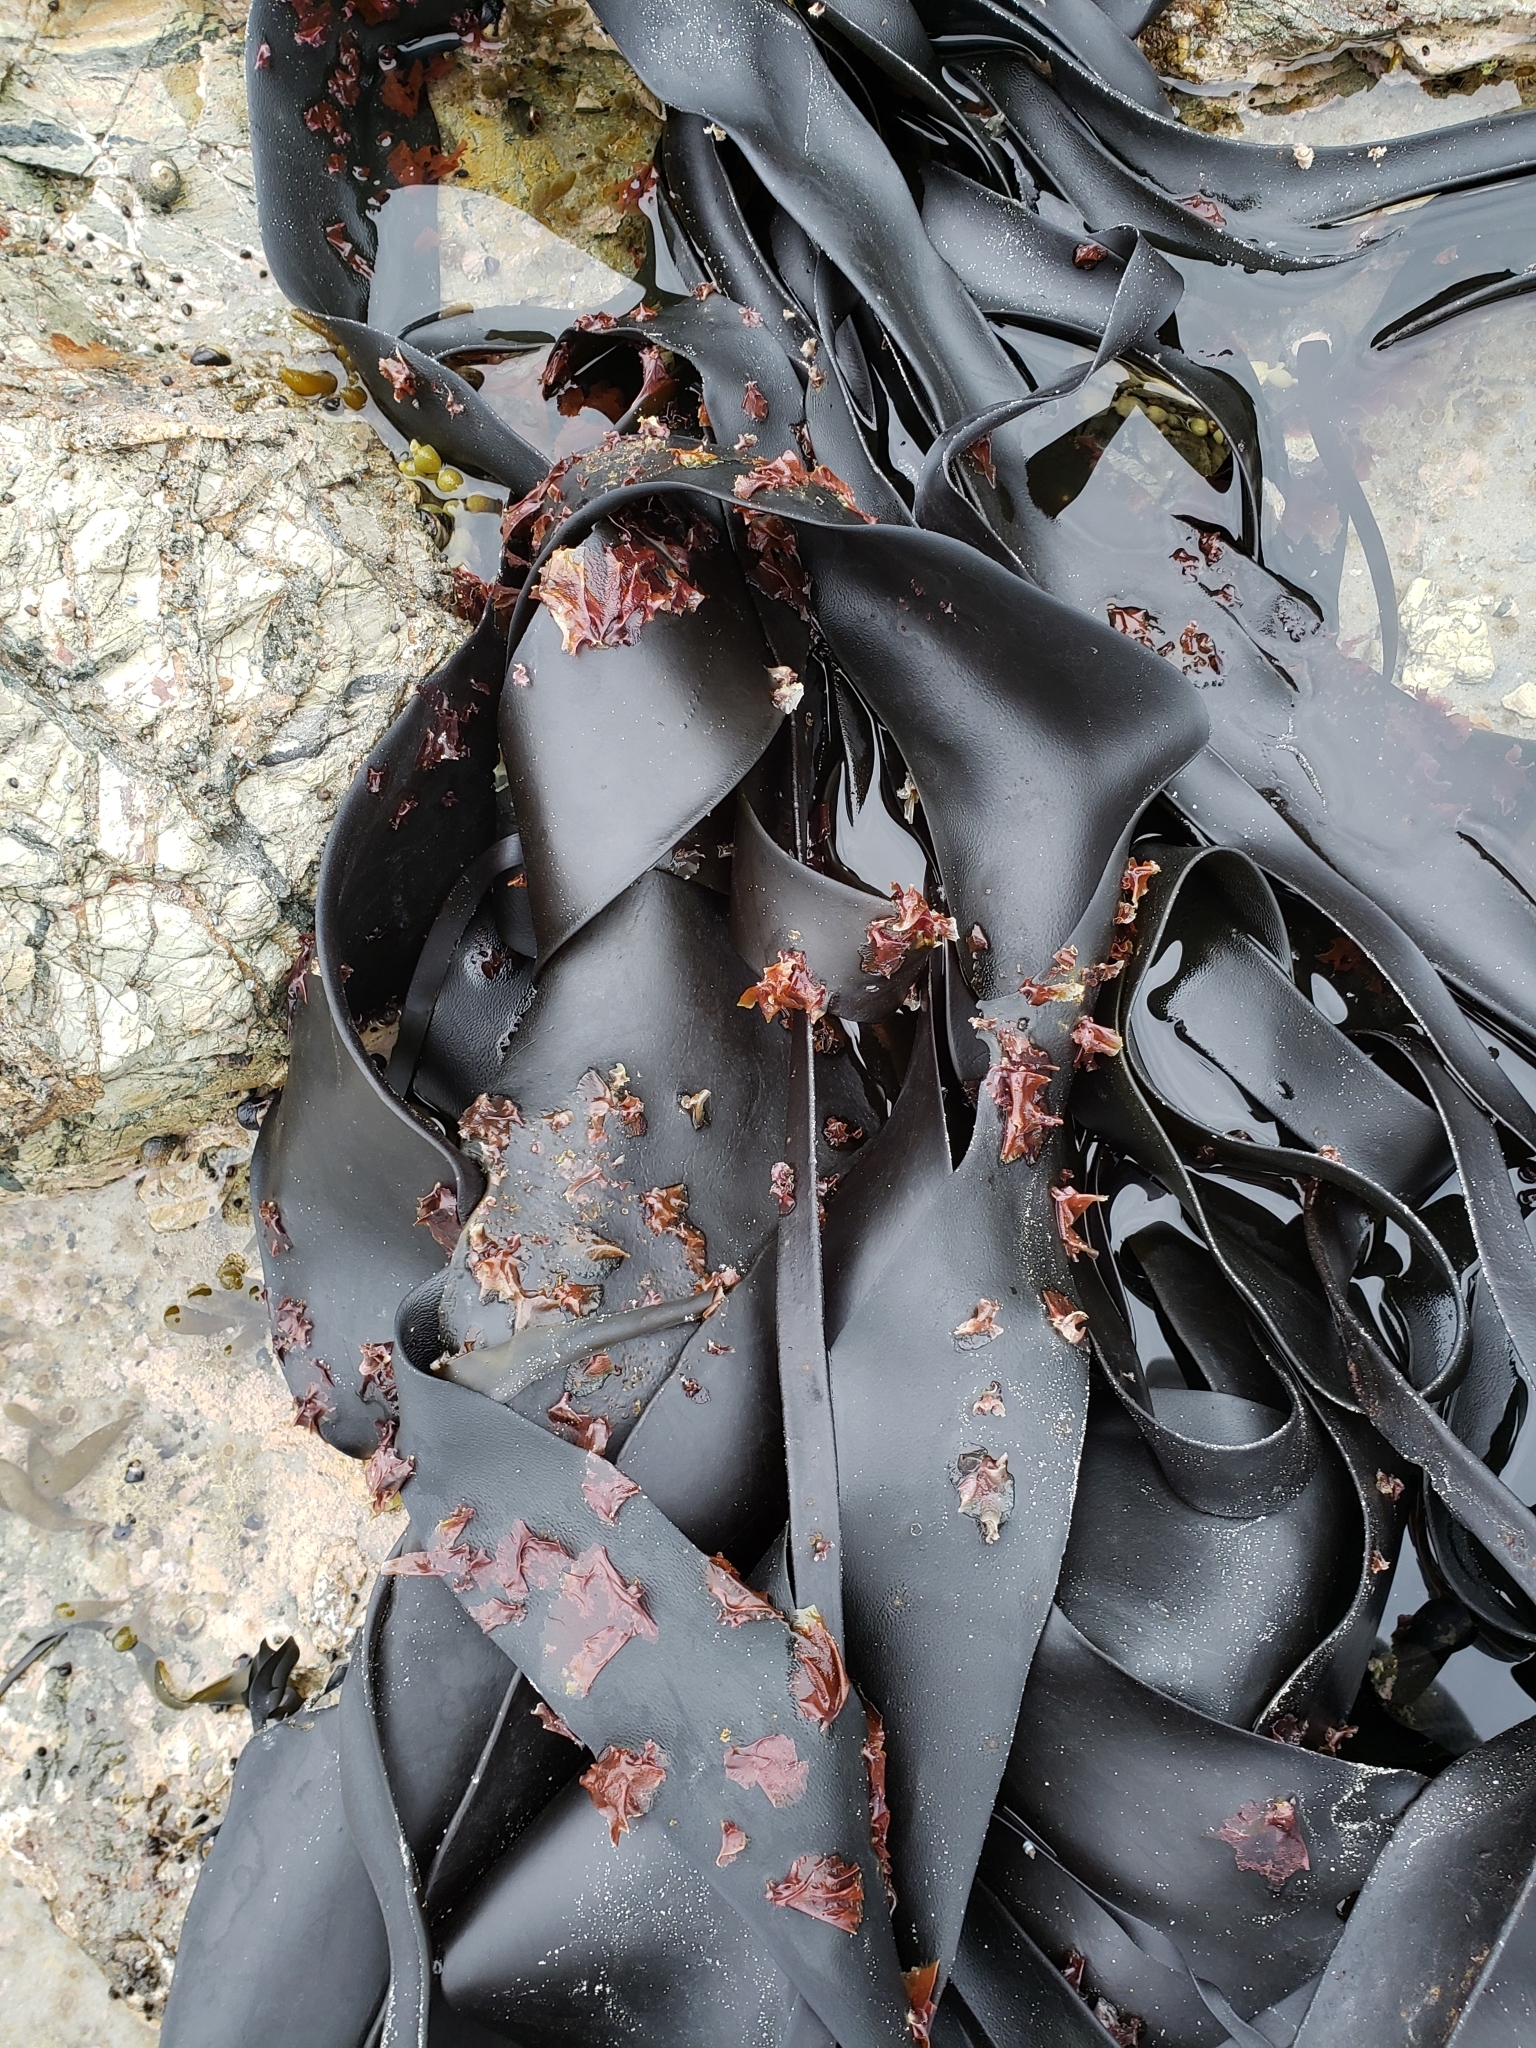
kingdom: Plantae
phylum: Rhodophyta
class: Compsopogonophyceae
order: Erythropeltidales
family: Erythrotrichiaceae
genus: Pyrophyllon
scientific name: Pyrophyllon subtumens
